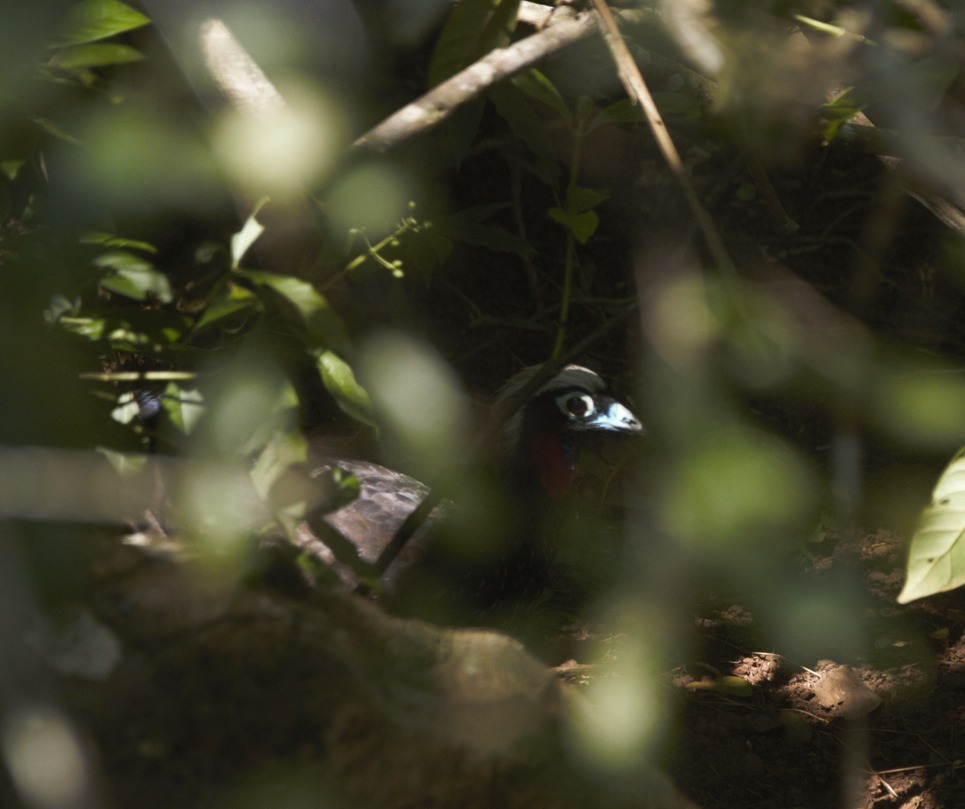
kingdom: Animalia
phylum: Chordata
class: Aves
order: Galliformes
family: Cracidae
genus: Pipile
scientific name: Pipile jacutinga
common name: Black-fronted piping-guan
